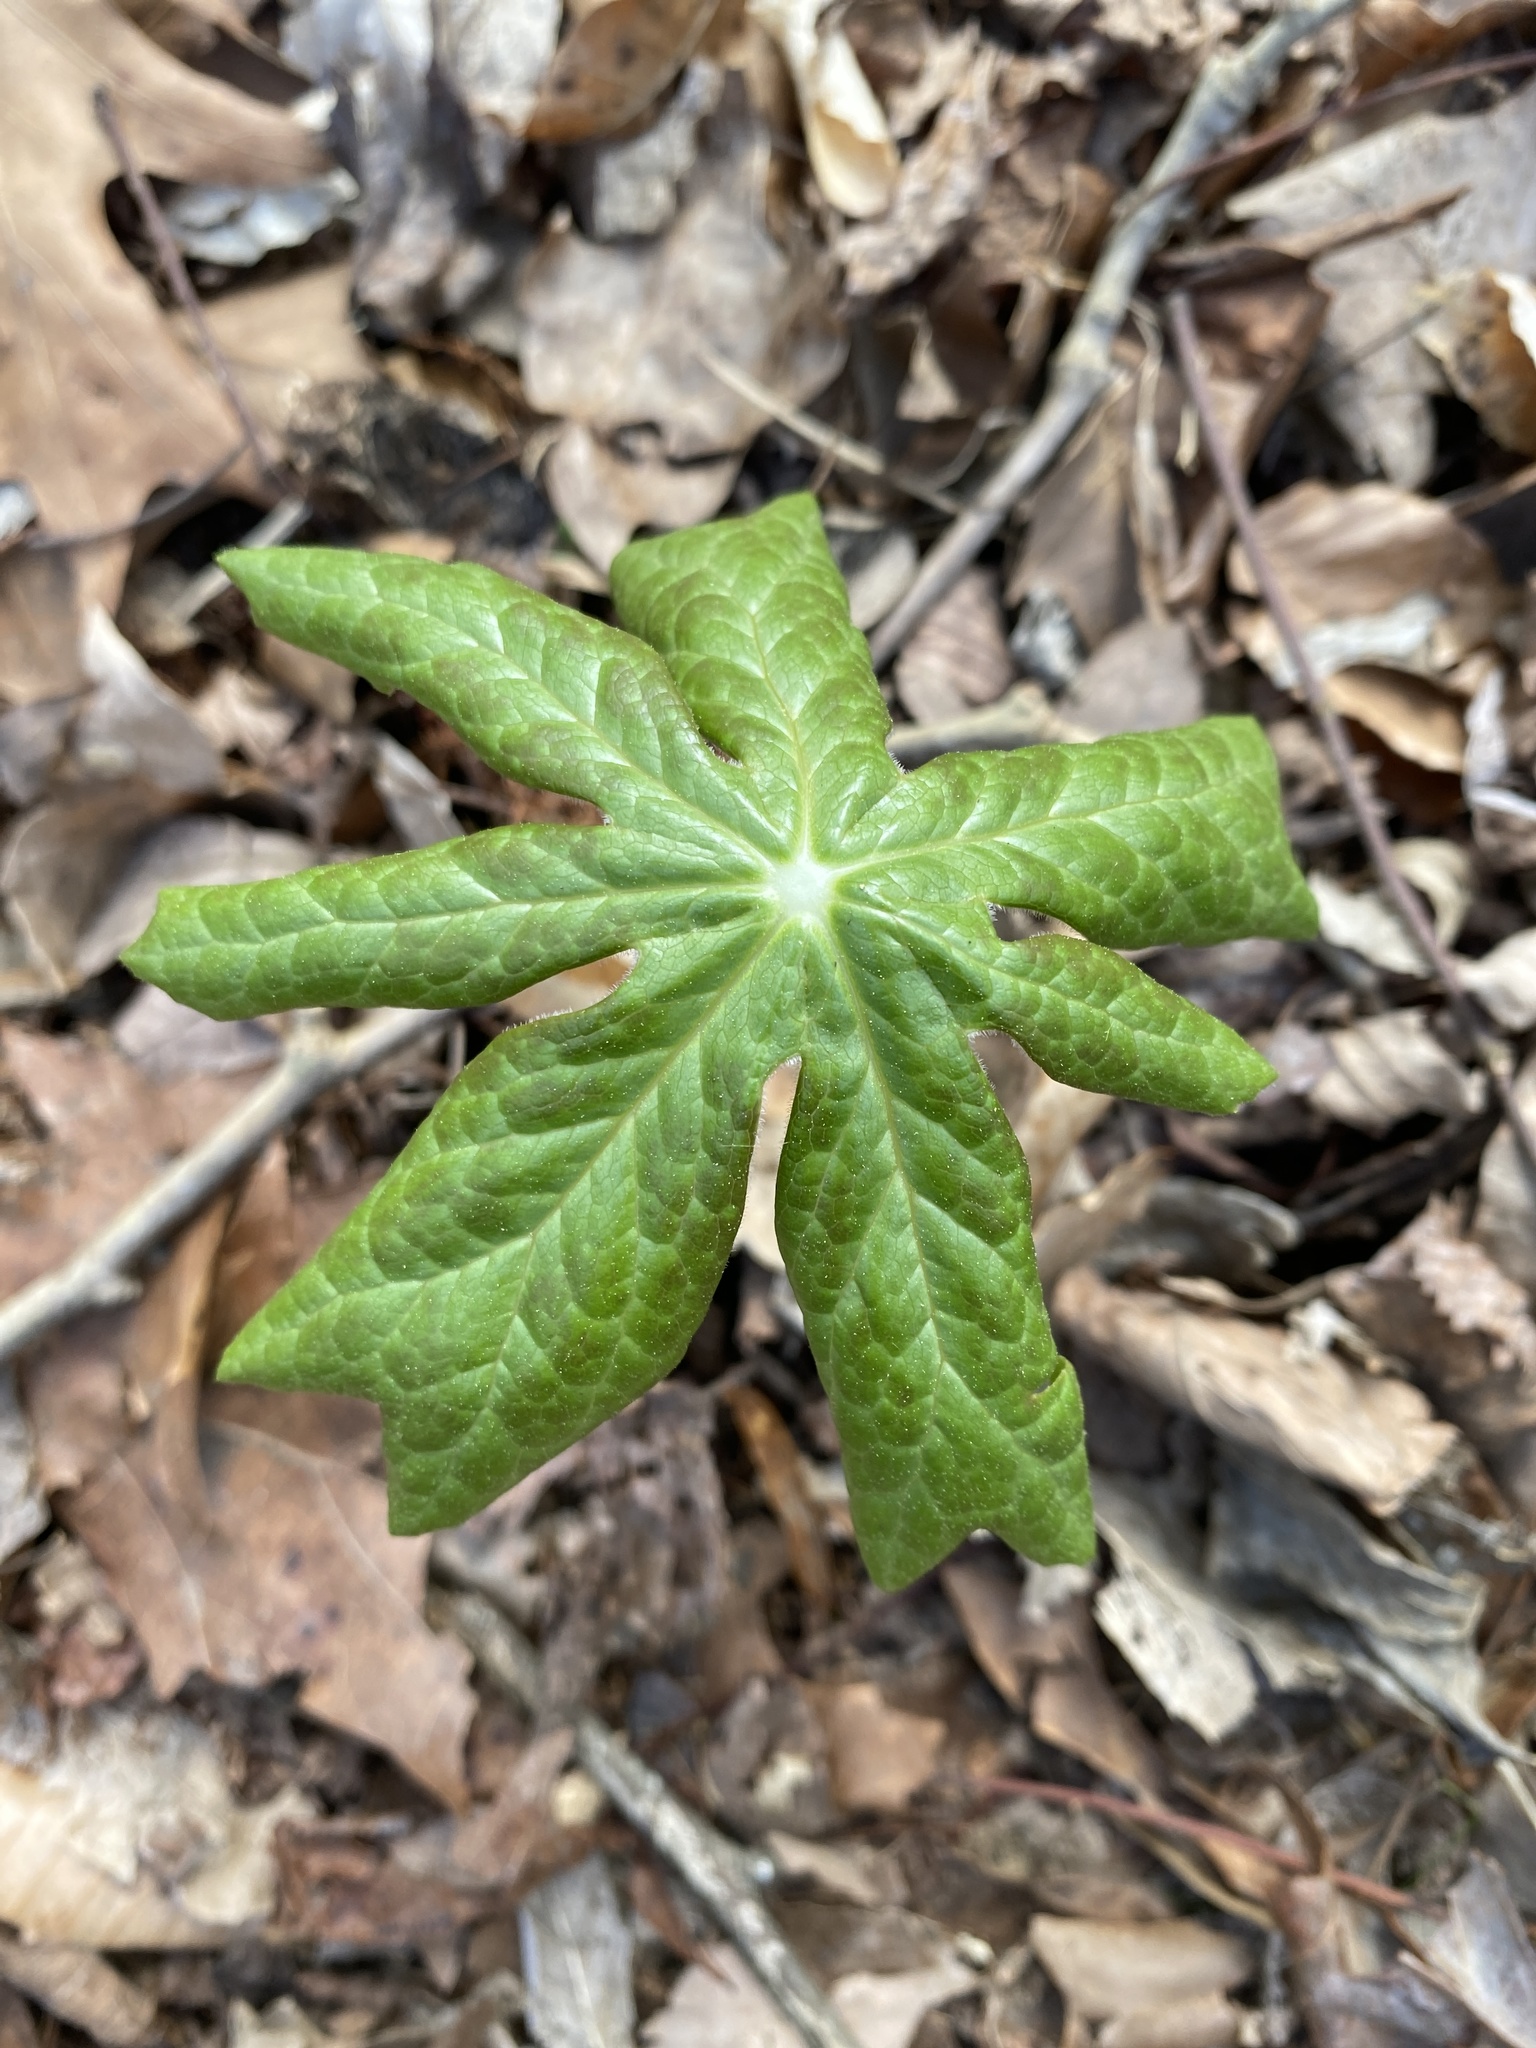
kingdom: Plantae
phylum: Tracheophyta
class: Magnoliopsida
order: Ranunculales
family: Berberidaceae
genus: Podophyllum
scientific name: Podophyllum peltatum
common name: Wild mandrake
